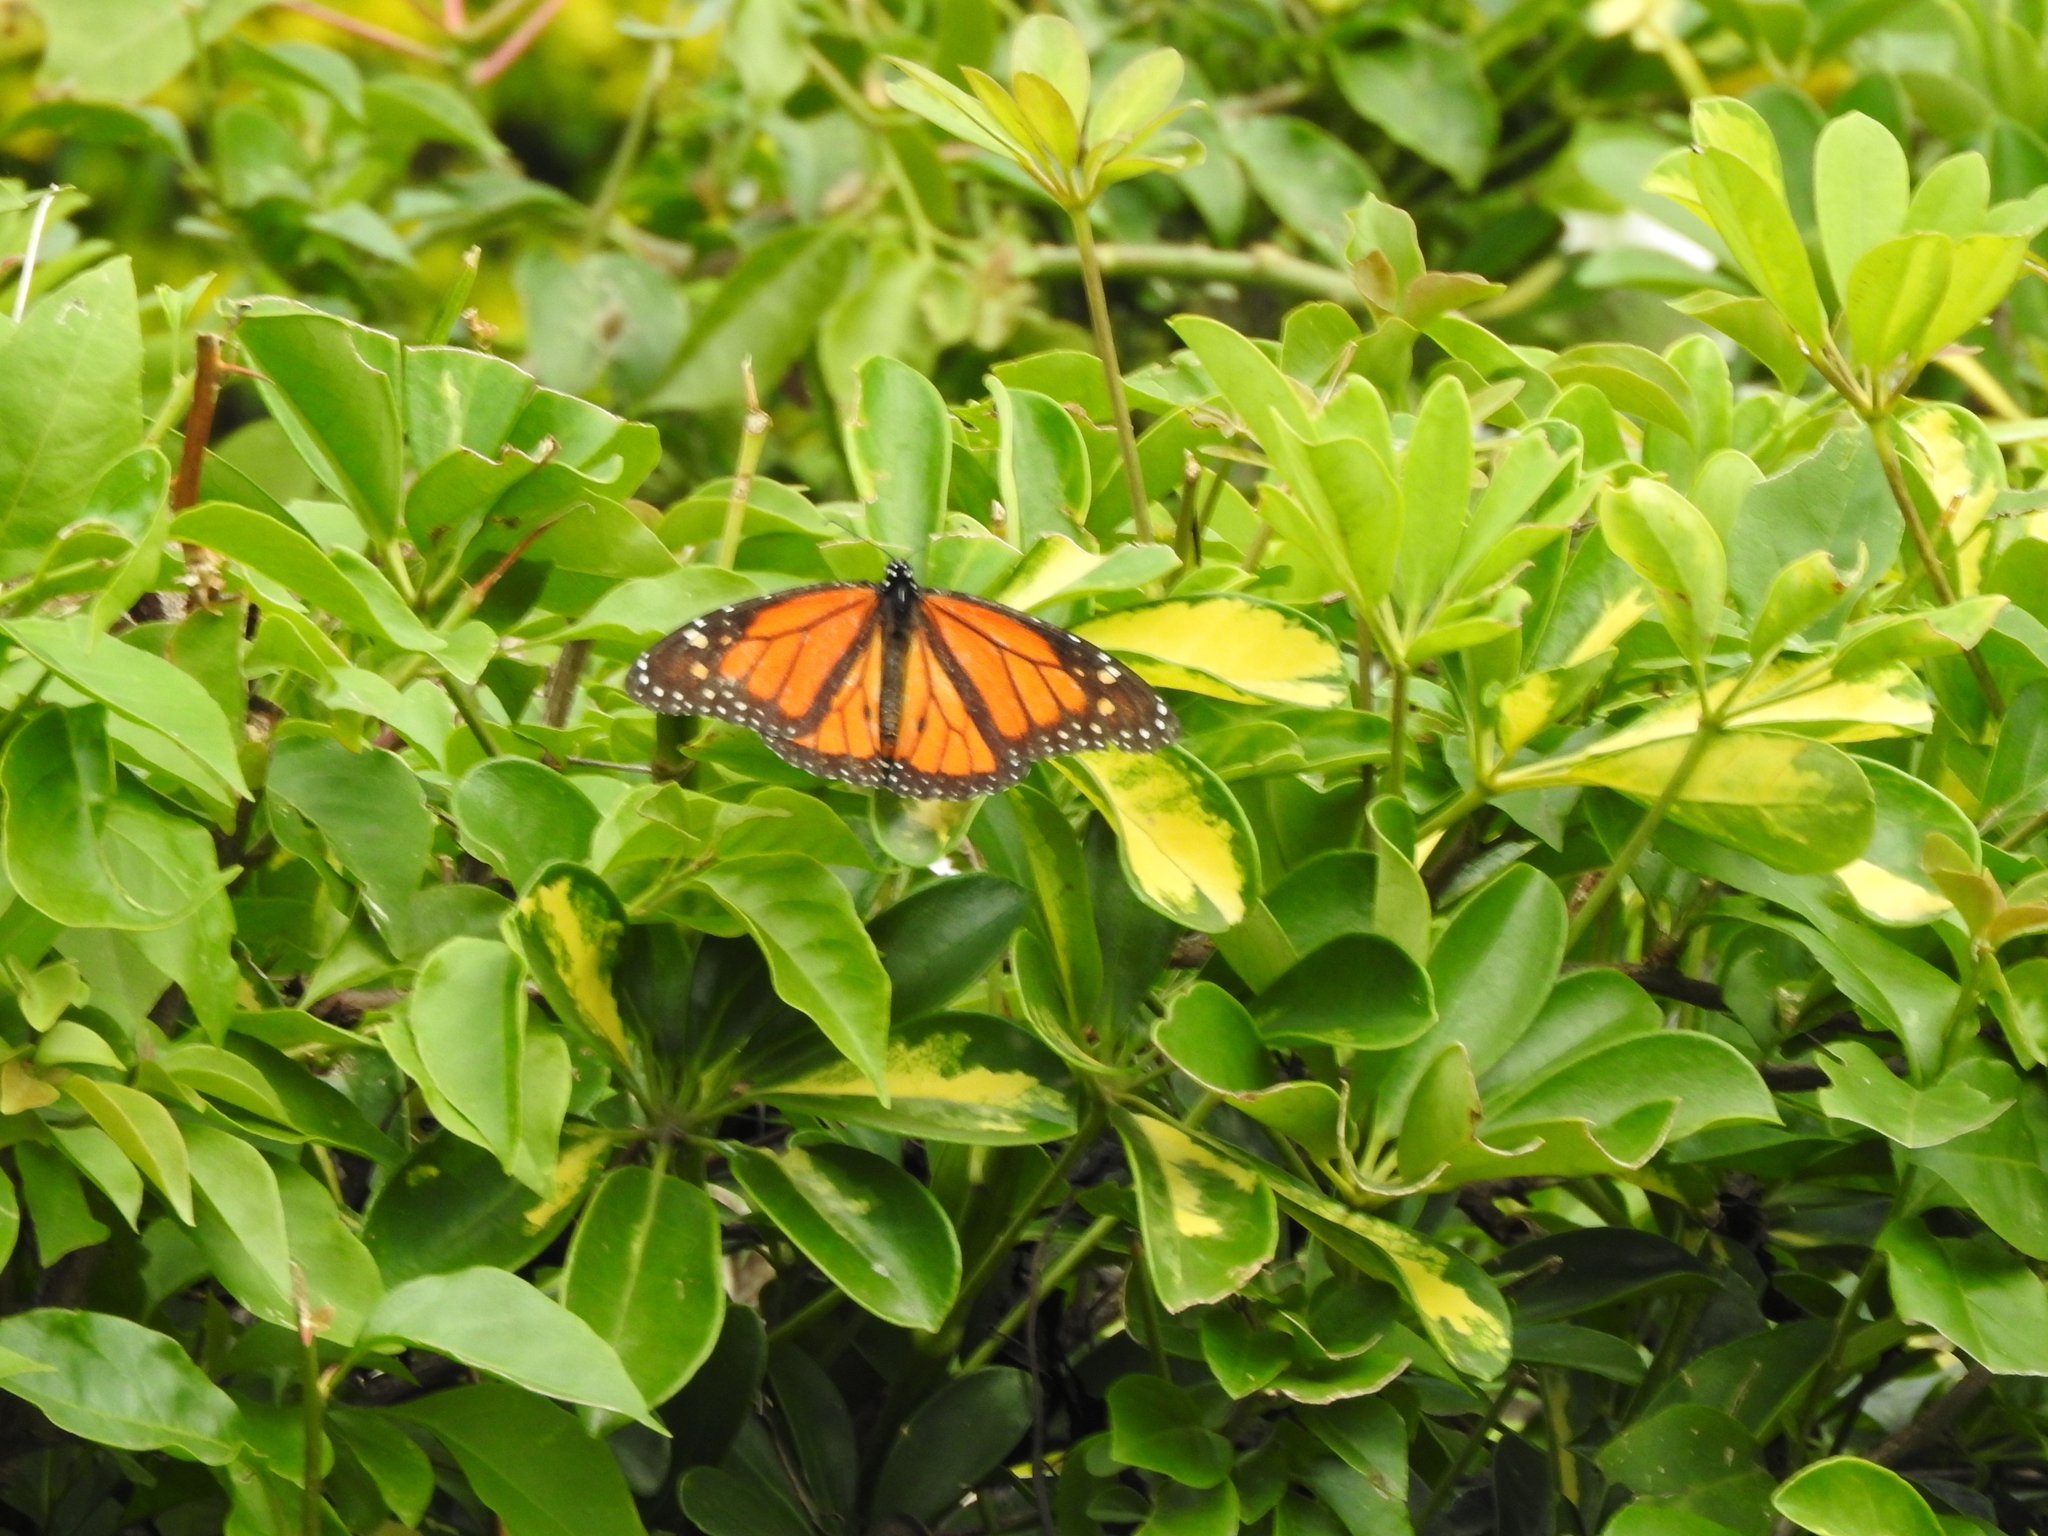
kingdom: Animalia
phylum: Arthropoda
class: Insecta
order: Lepidoptera
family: Nymphalidae
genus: Danaus
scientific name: Danaus plexippus
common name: Monarch
